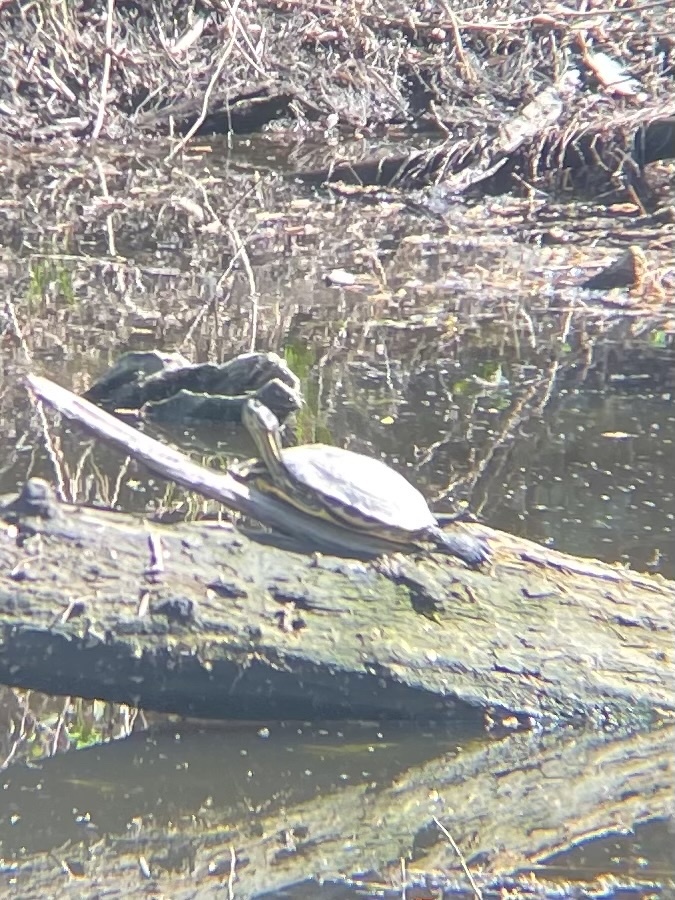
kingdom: Animalia
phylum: Chordata
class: Testudines
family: Emydidae
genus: Trachemys
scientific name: Trachemys scripta
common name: Slider
